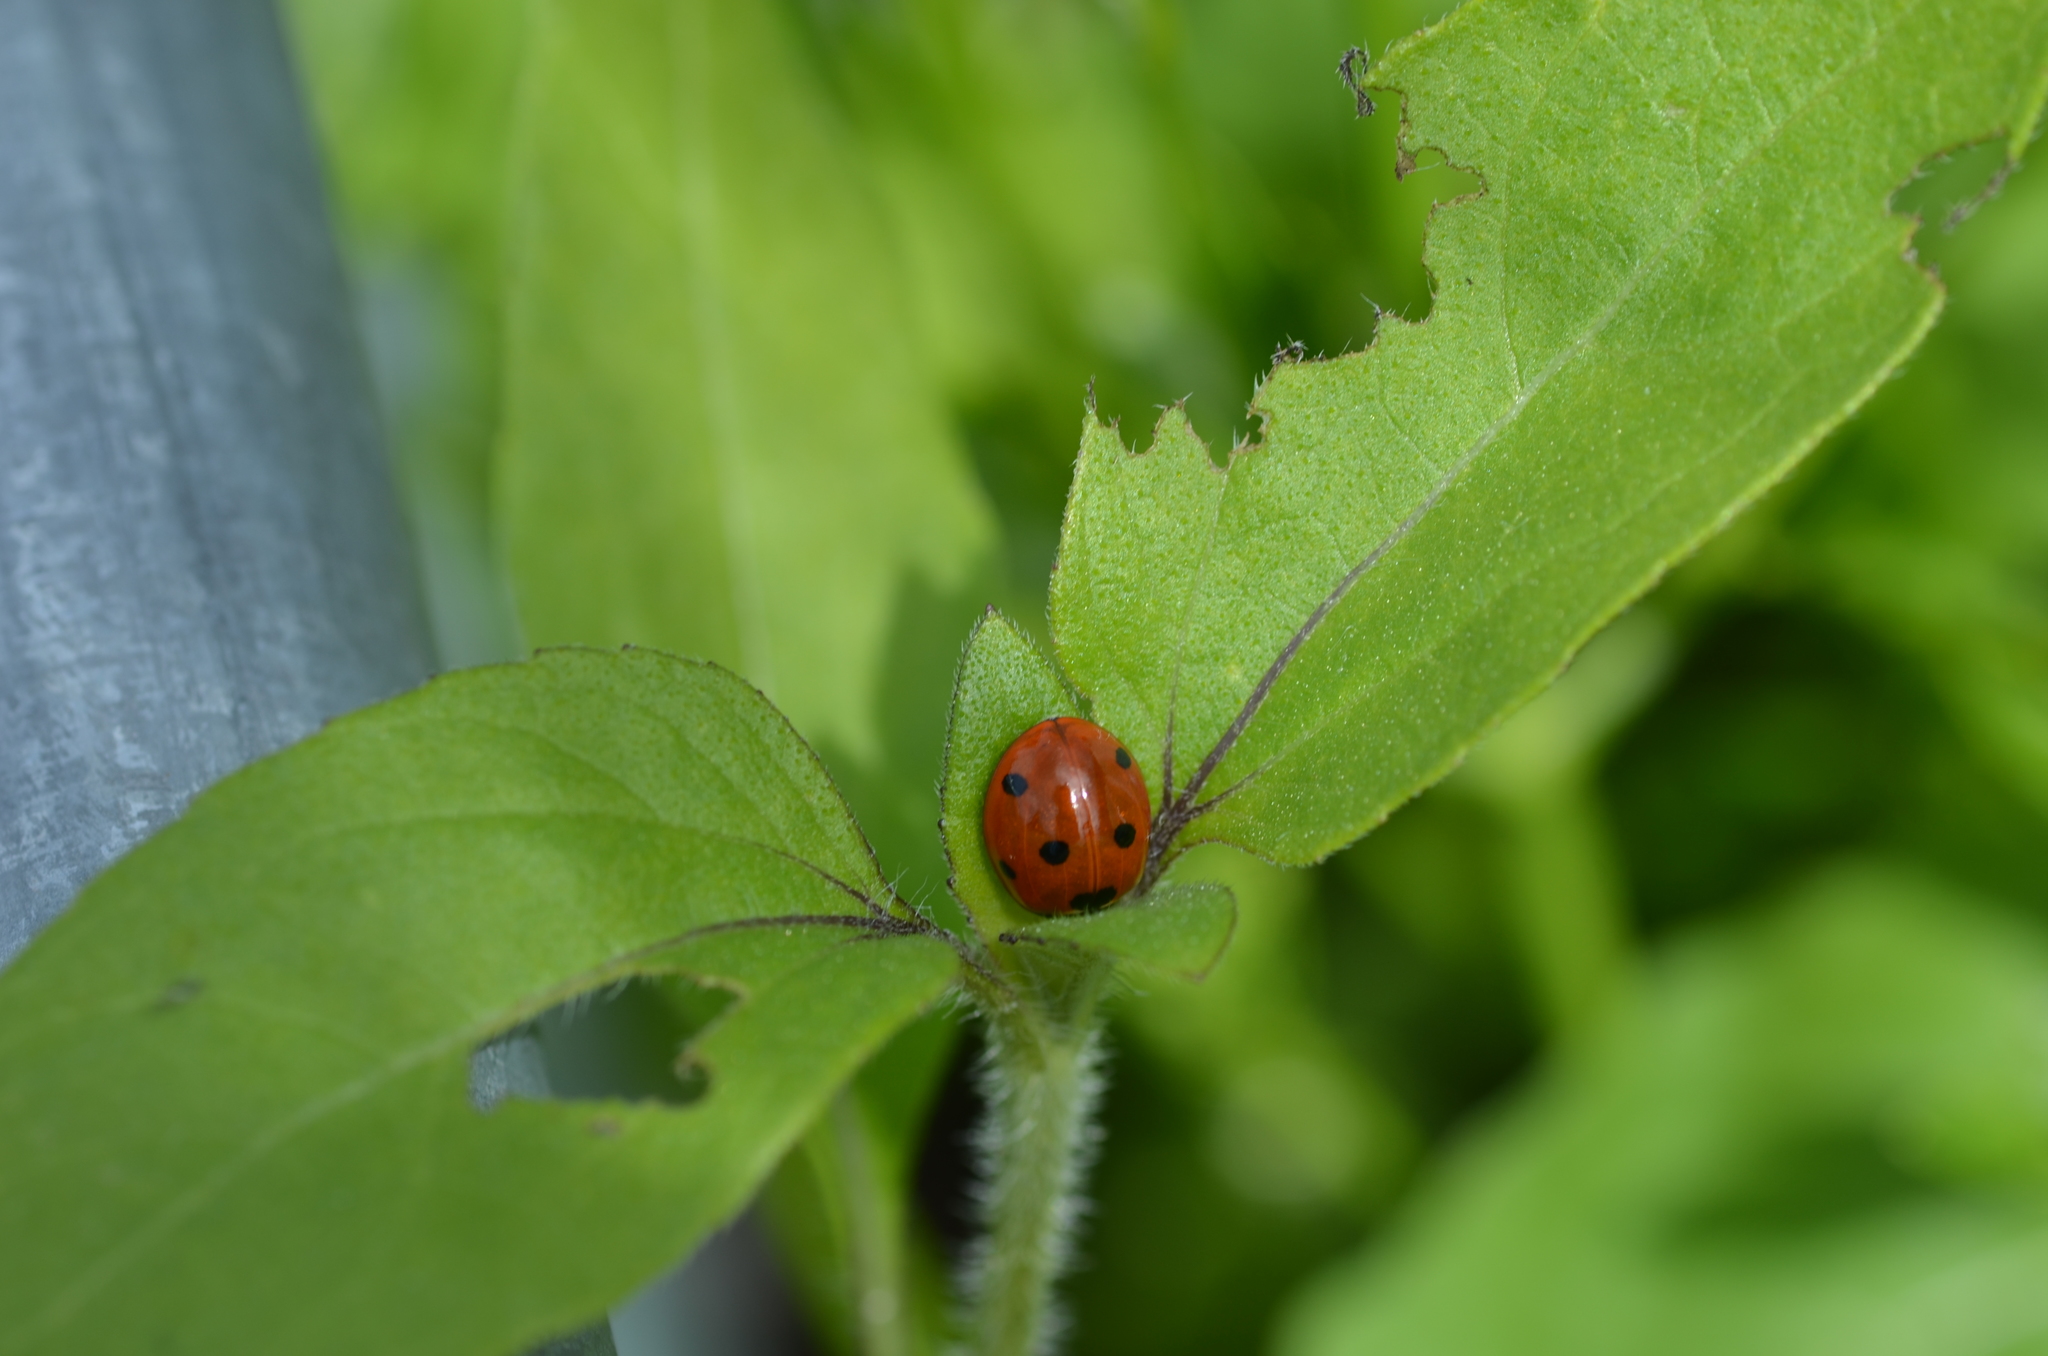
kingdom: Animalia
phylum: Arthropoda
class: Insecta
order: Coleoptera
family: Coccinellidae
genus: Coccinella
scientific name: Coccinella septempunctata
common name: Sevenspotted lady beetle
